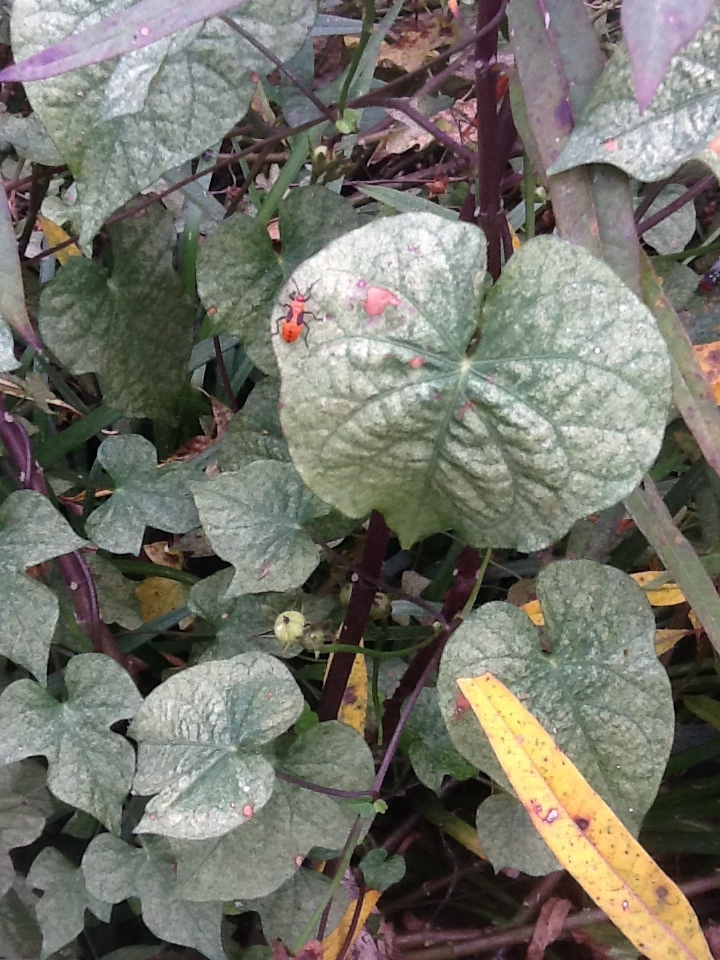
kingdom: Animalia
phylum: Arthropoda
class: Insecta
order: Hemiptera
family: Lygaeidae
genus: Oncopeltus
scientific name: Oncopeltus fasciatus
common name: Large milkweed bug
